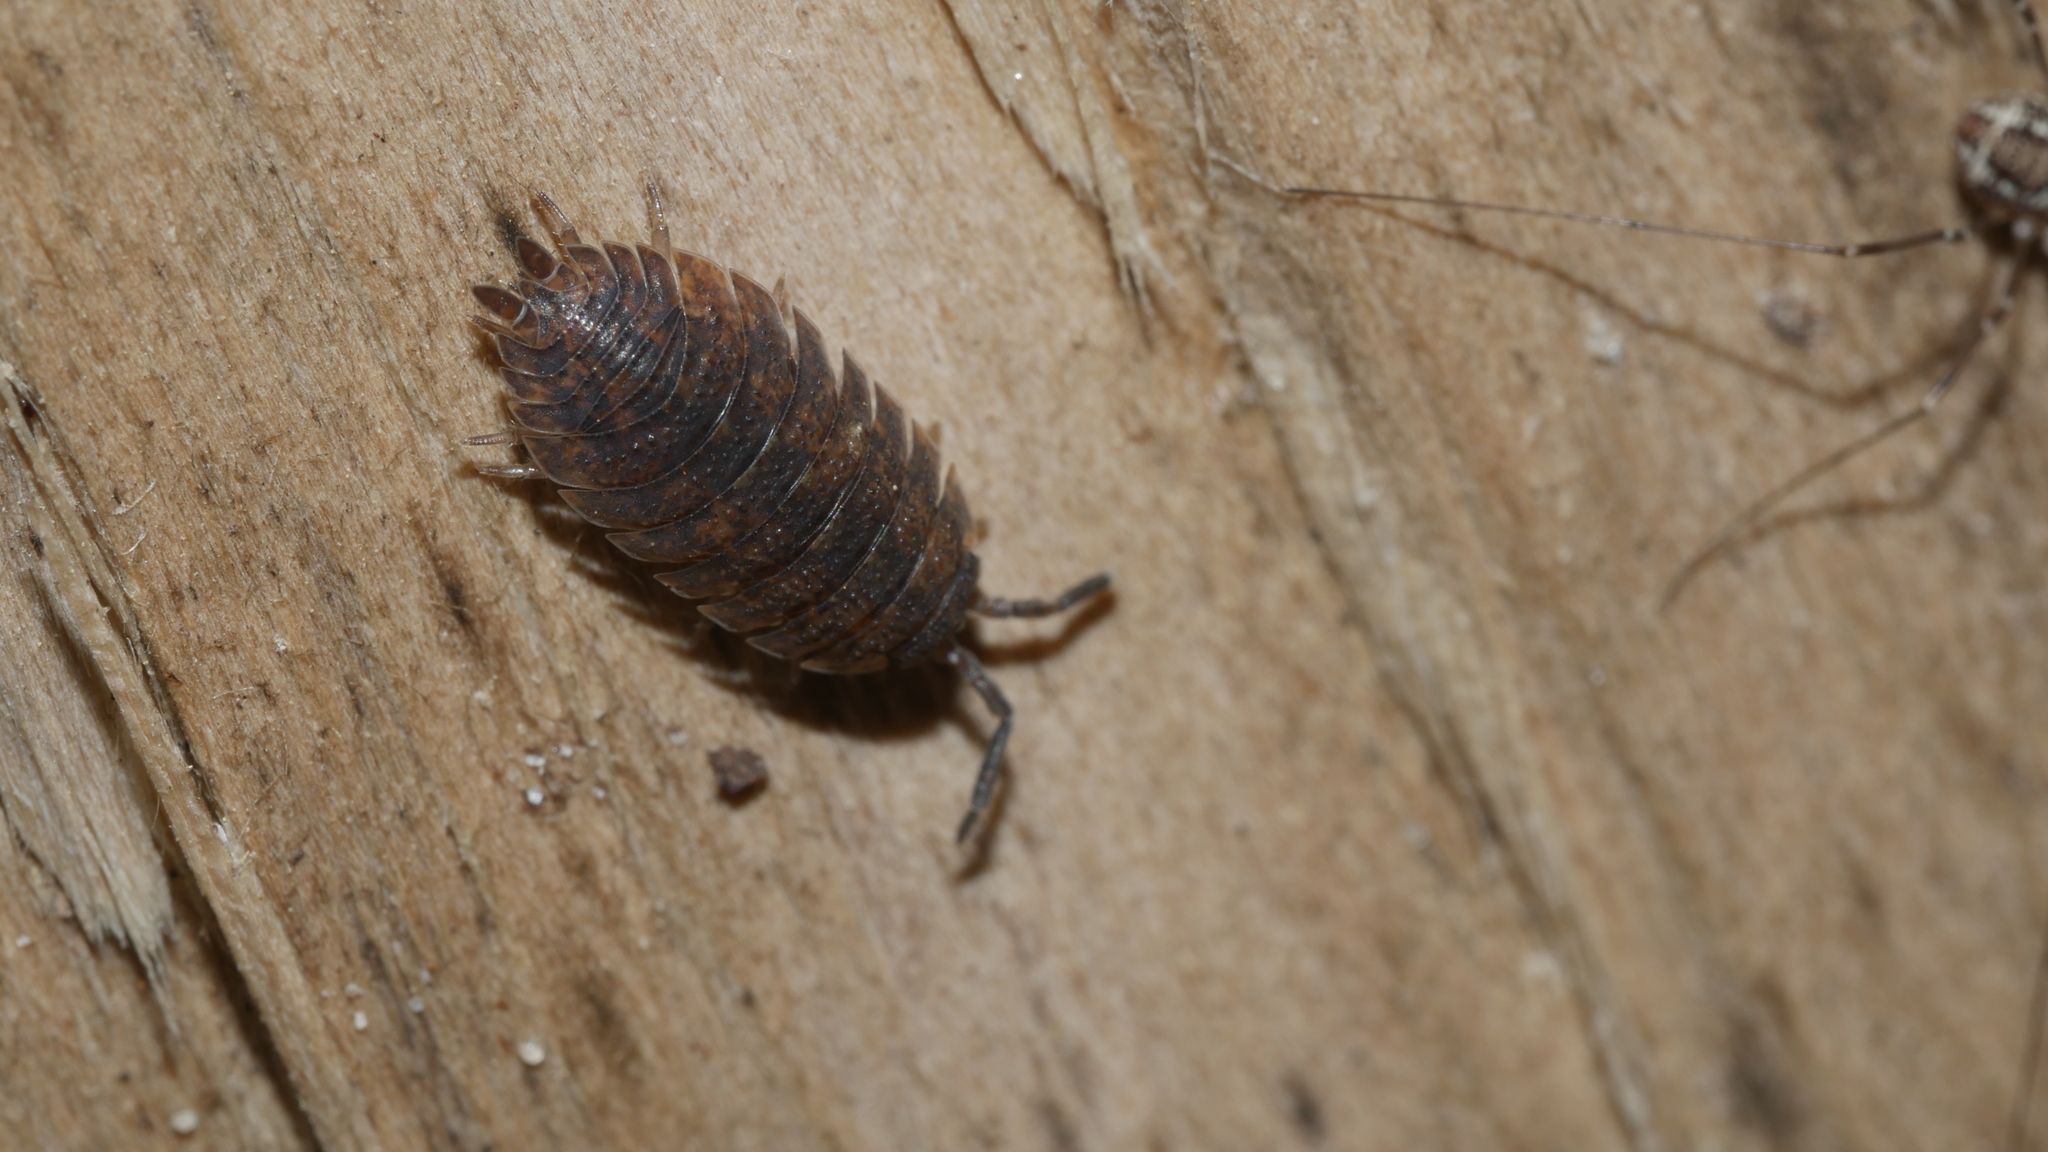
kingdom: Animalia
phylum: Arthropoda
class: Malacostraca
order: Isopoda
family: Porcellionidae
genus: Porcellio
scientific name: Porcellio scaber
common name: Common rough woodlouse
